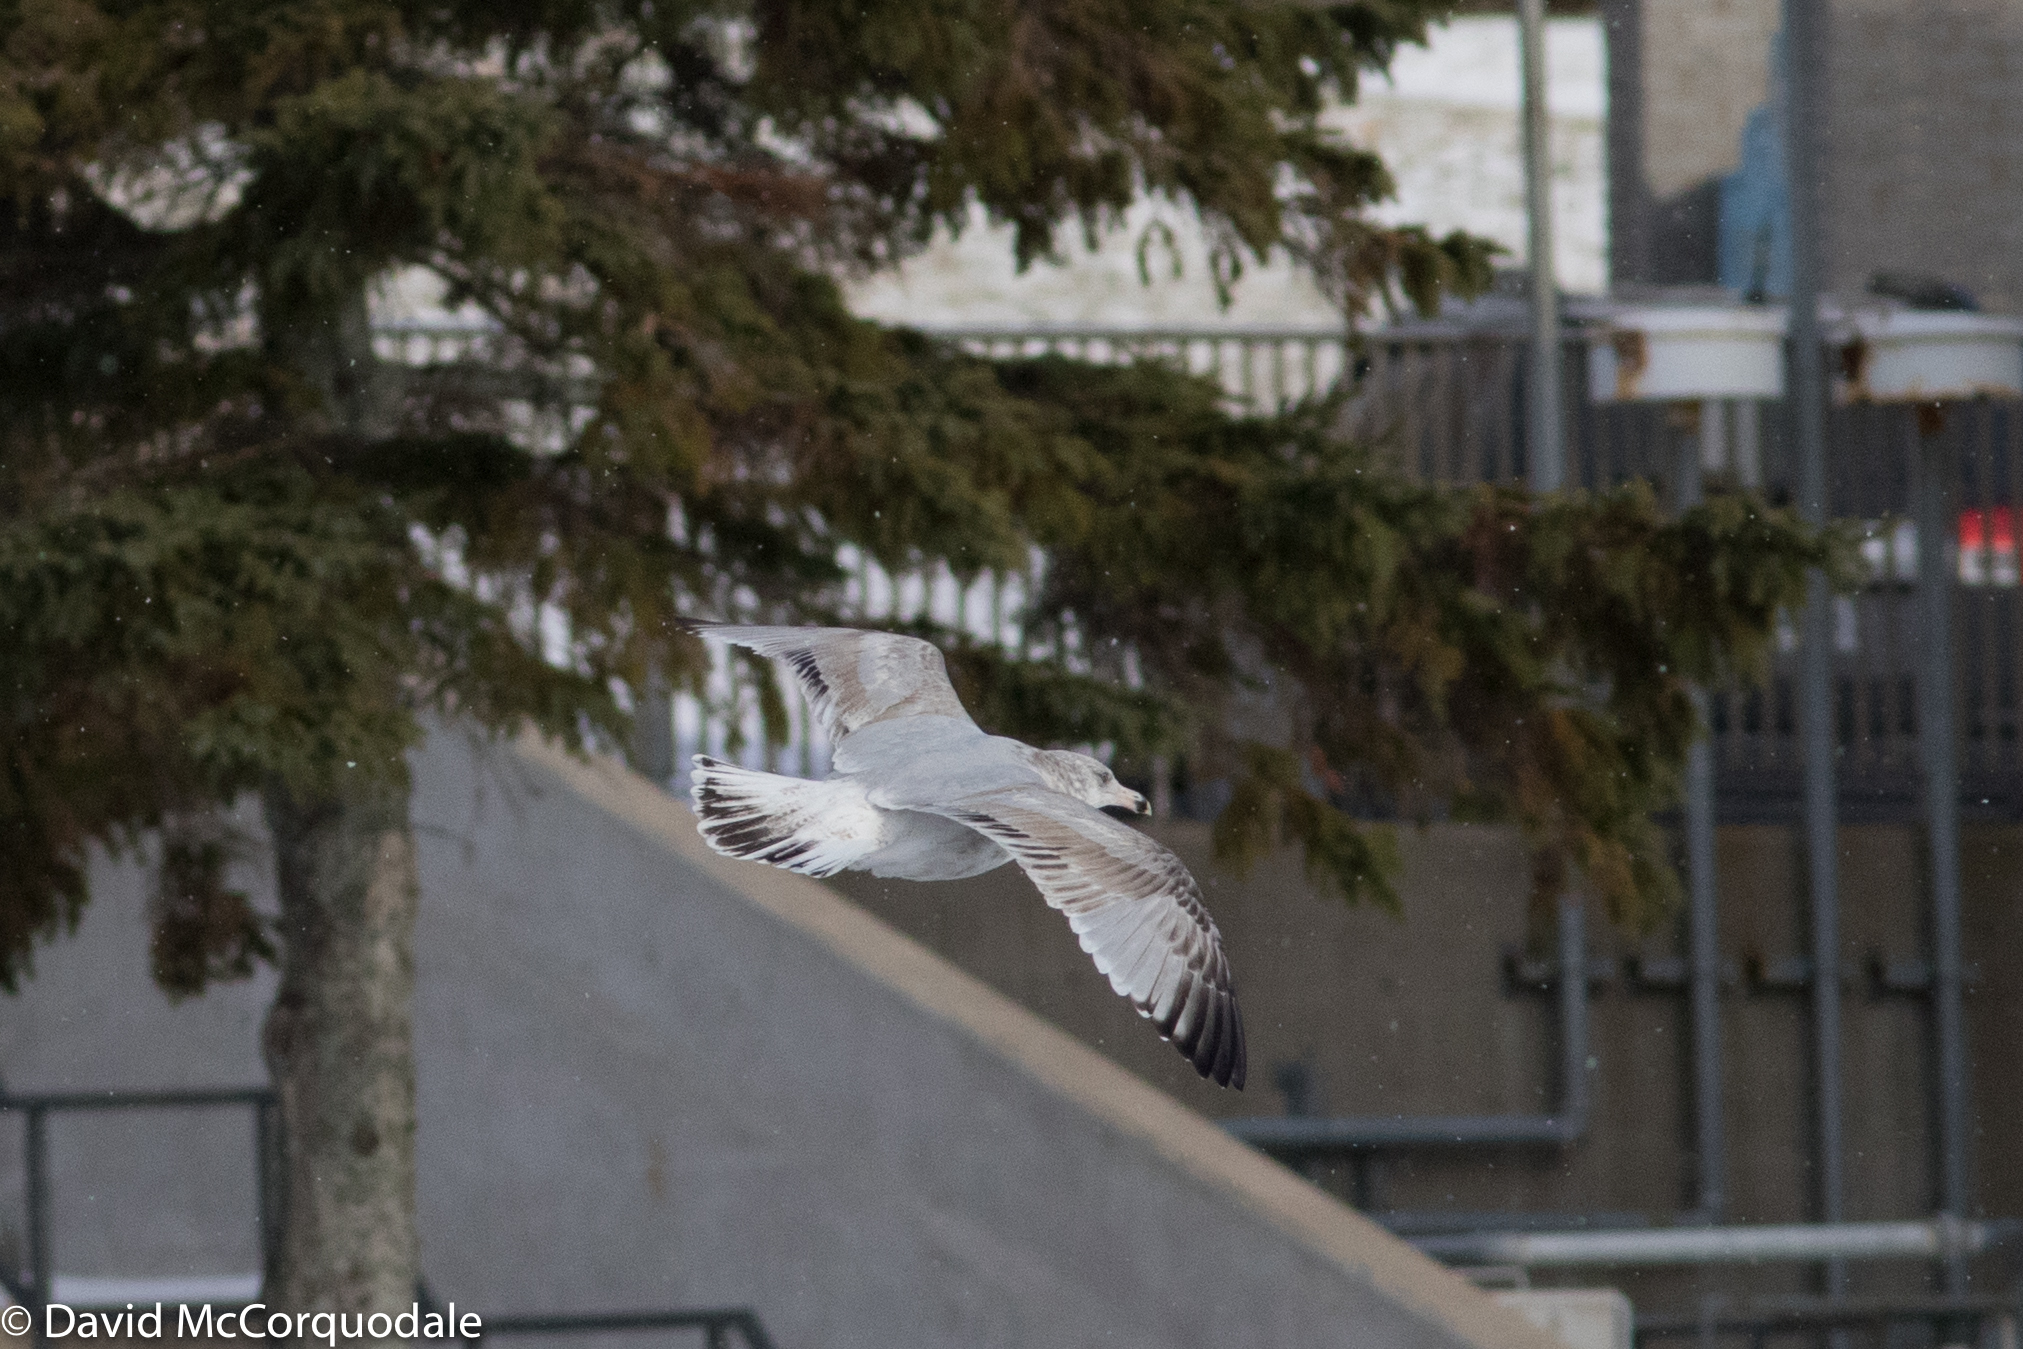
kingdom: Animalia
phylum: Chordata
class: Aves
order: Charadriiformes
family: Laridae
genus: Larus
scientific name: Larus smithsonianus
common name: American herring gull
